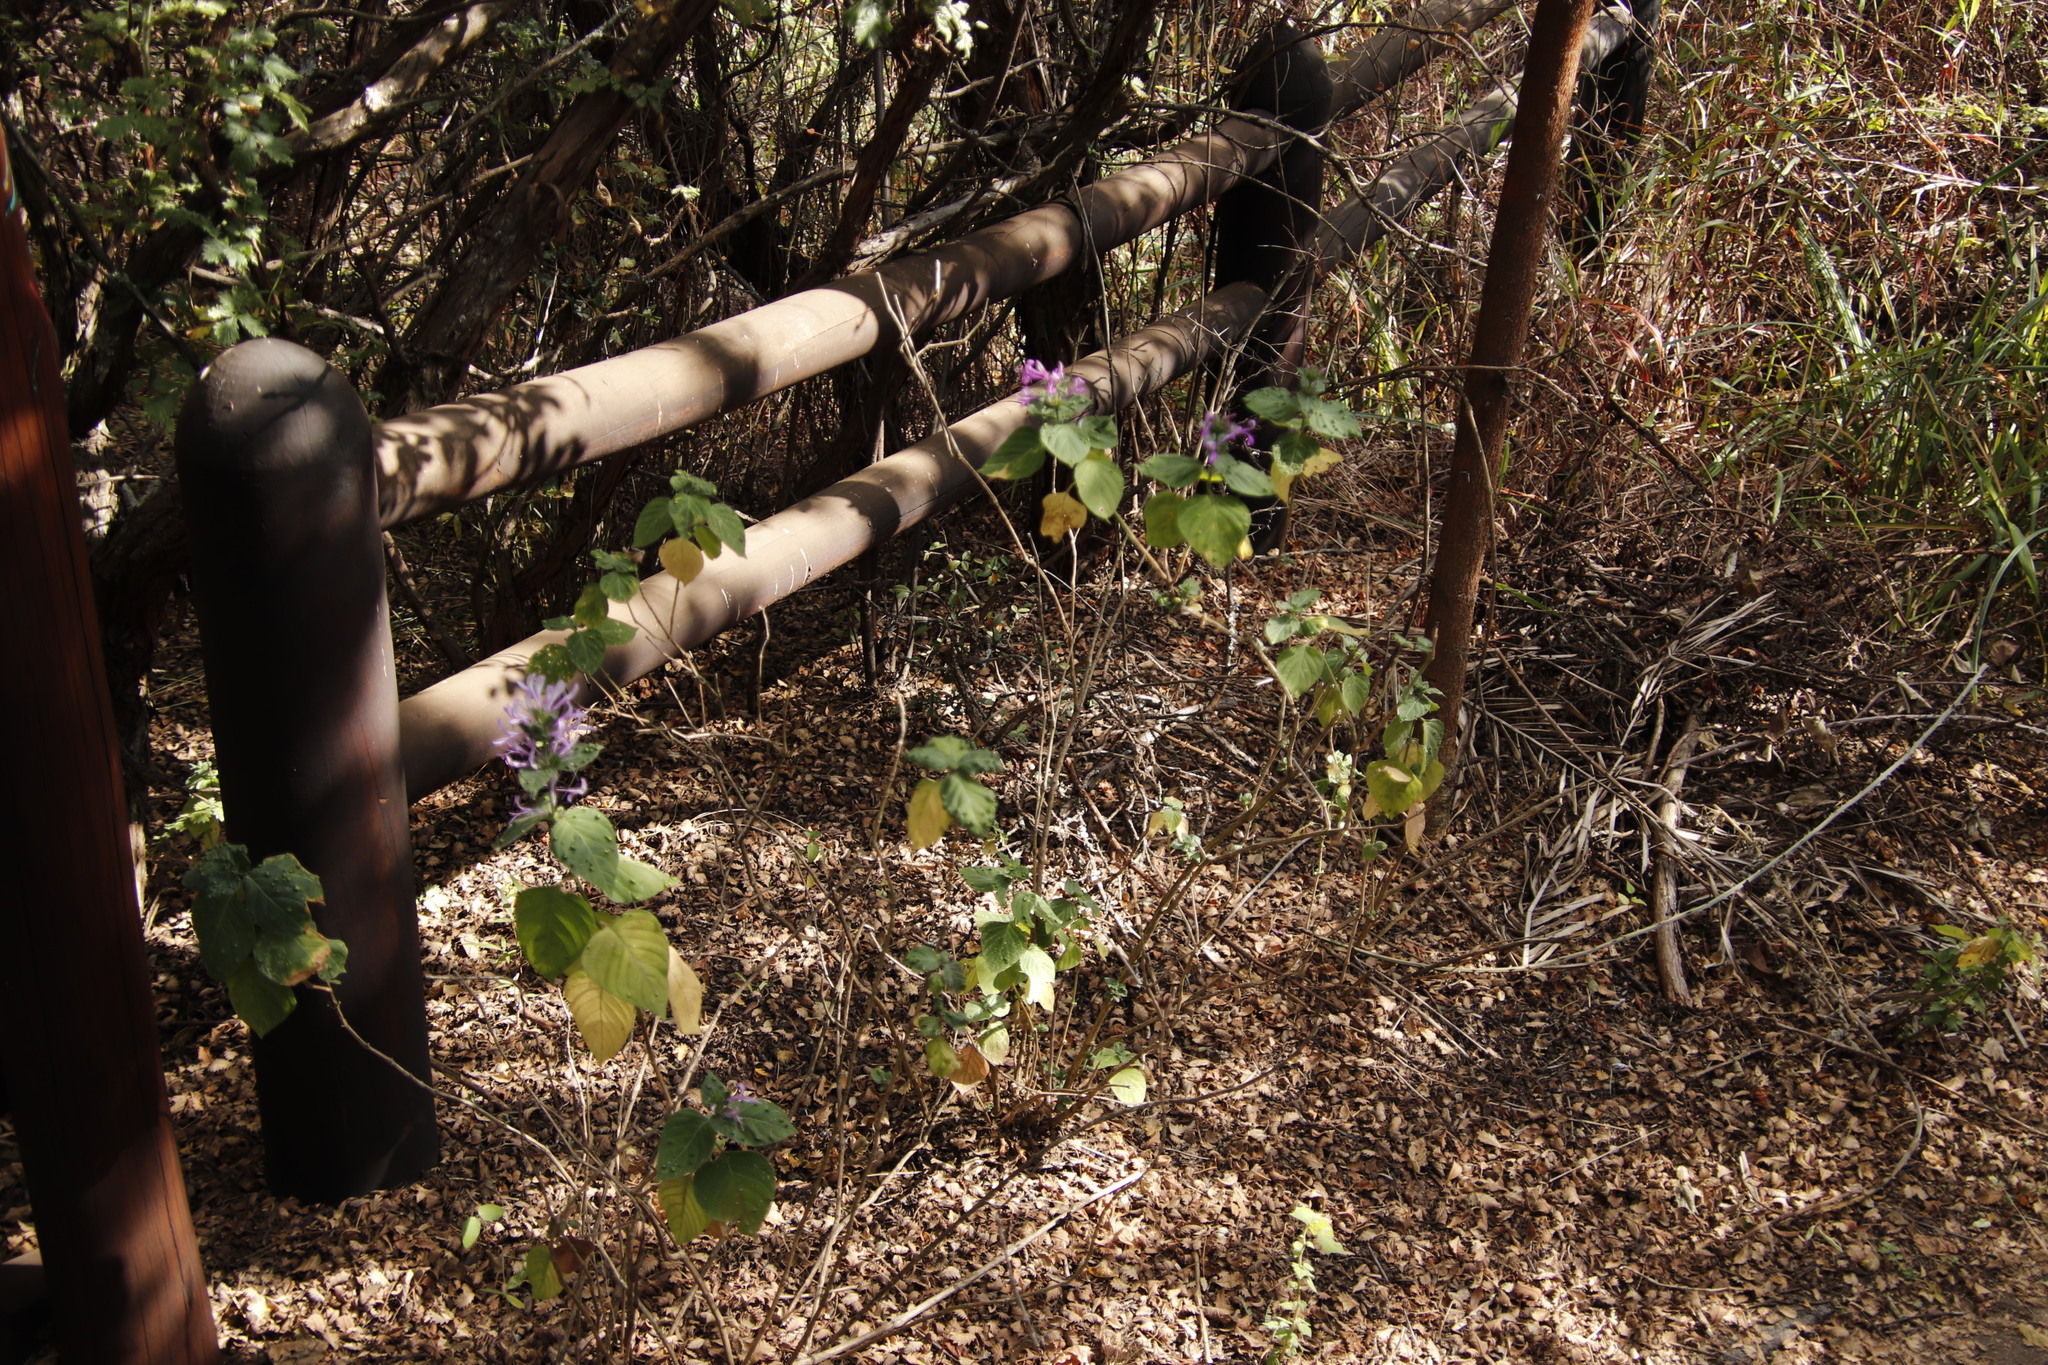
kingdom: Plantae
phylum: Tracheophyta
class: Magnoliopsida
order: Lamiales
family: Acanthaceae
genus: Hypoestes
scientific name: Hypoestes aristata
